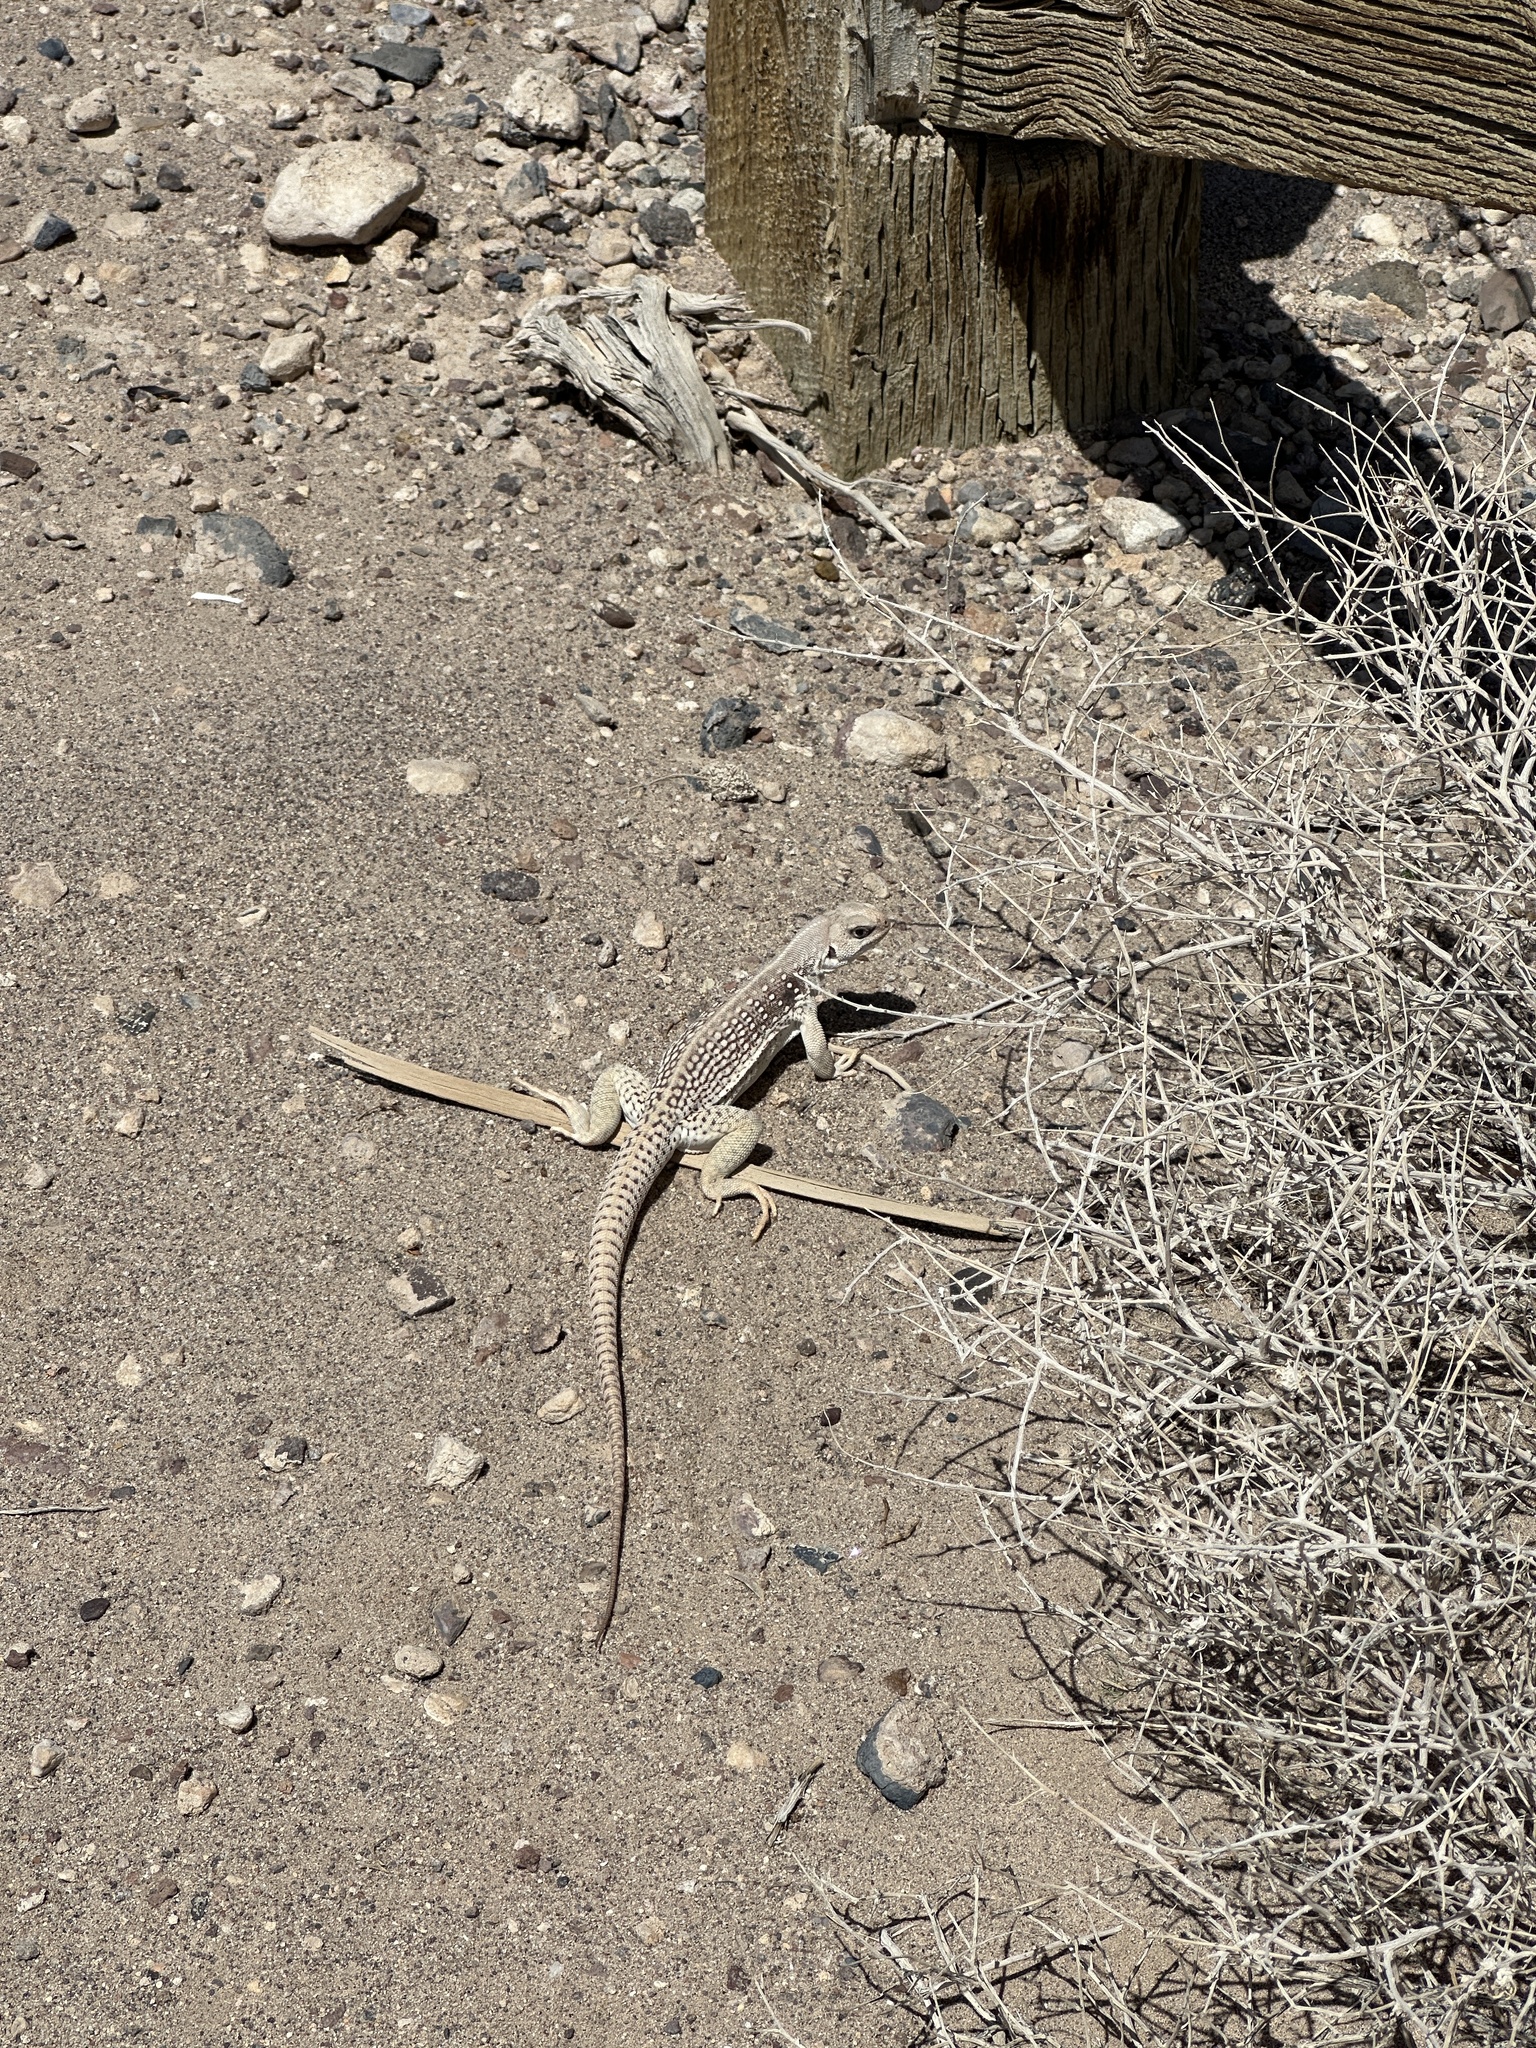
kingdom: Animalia
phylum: Chordata
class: Squamata
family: Iguanidae
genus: Dipsosaurus
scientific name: Dipsosaurus dorsalis
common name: Desert iguana
